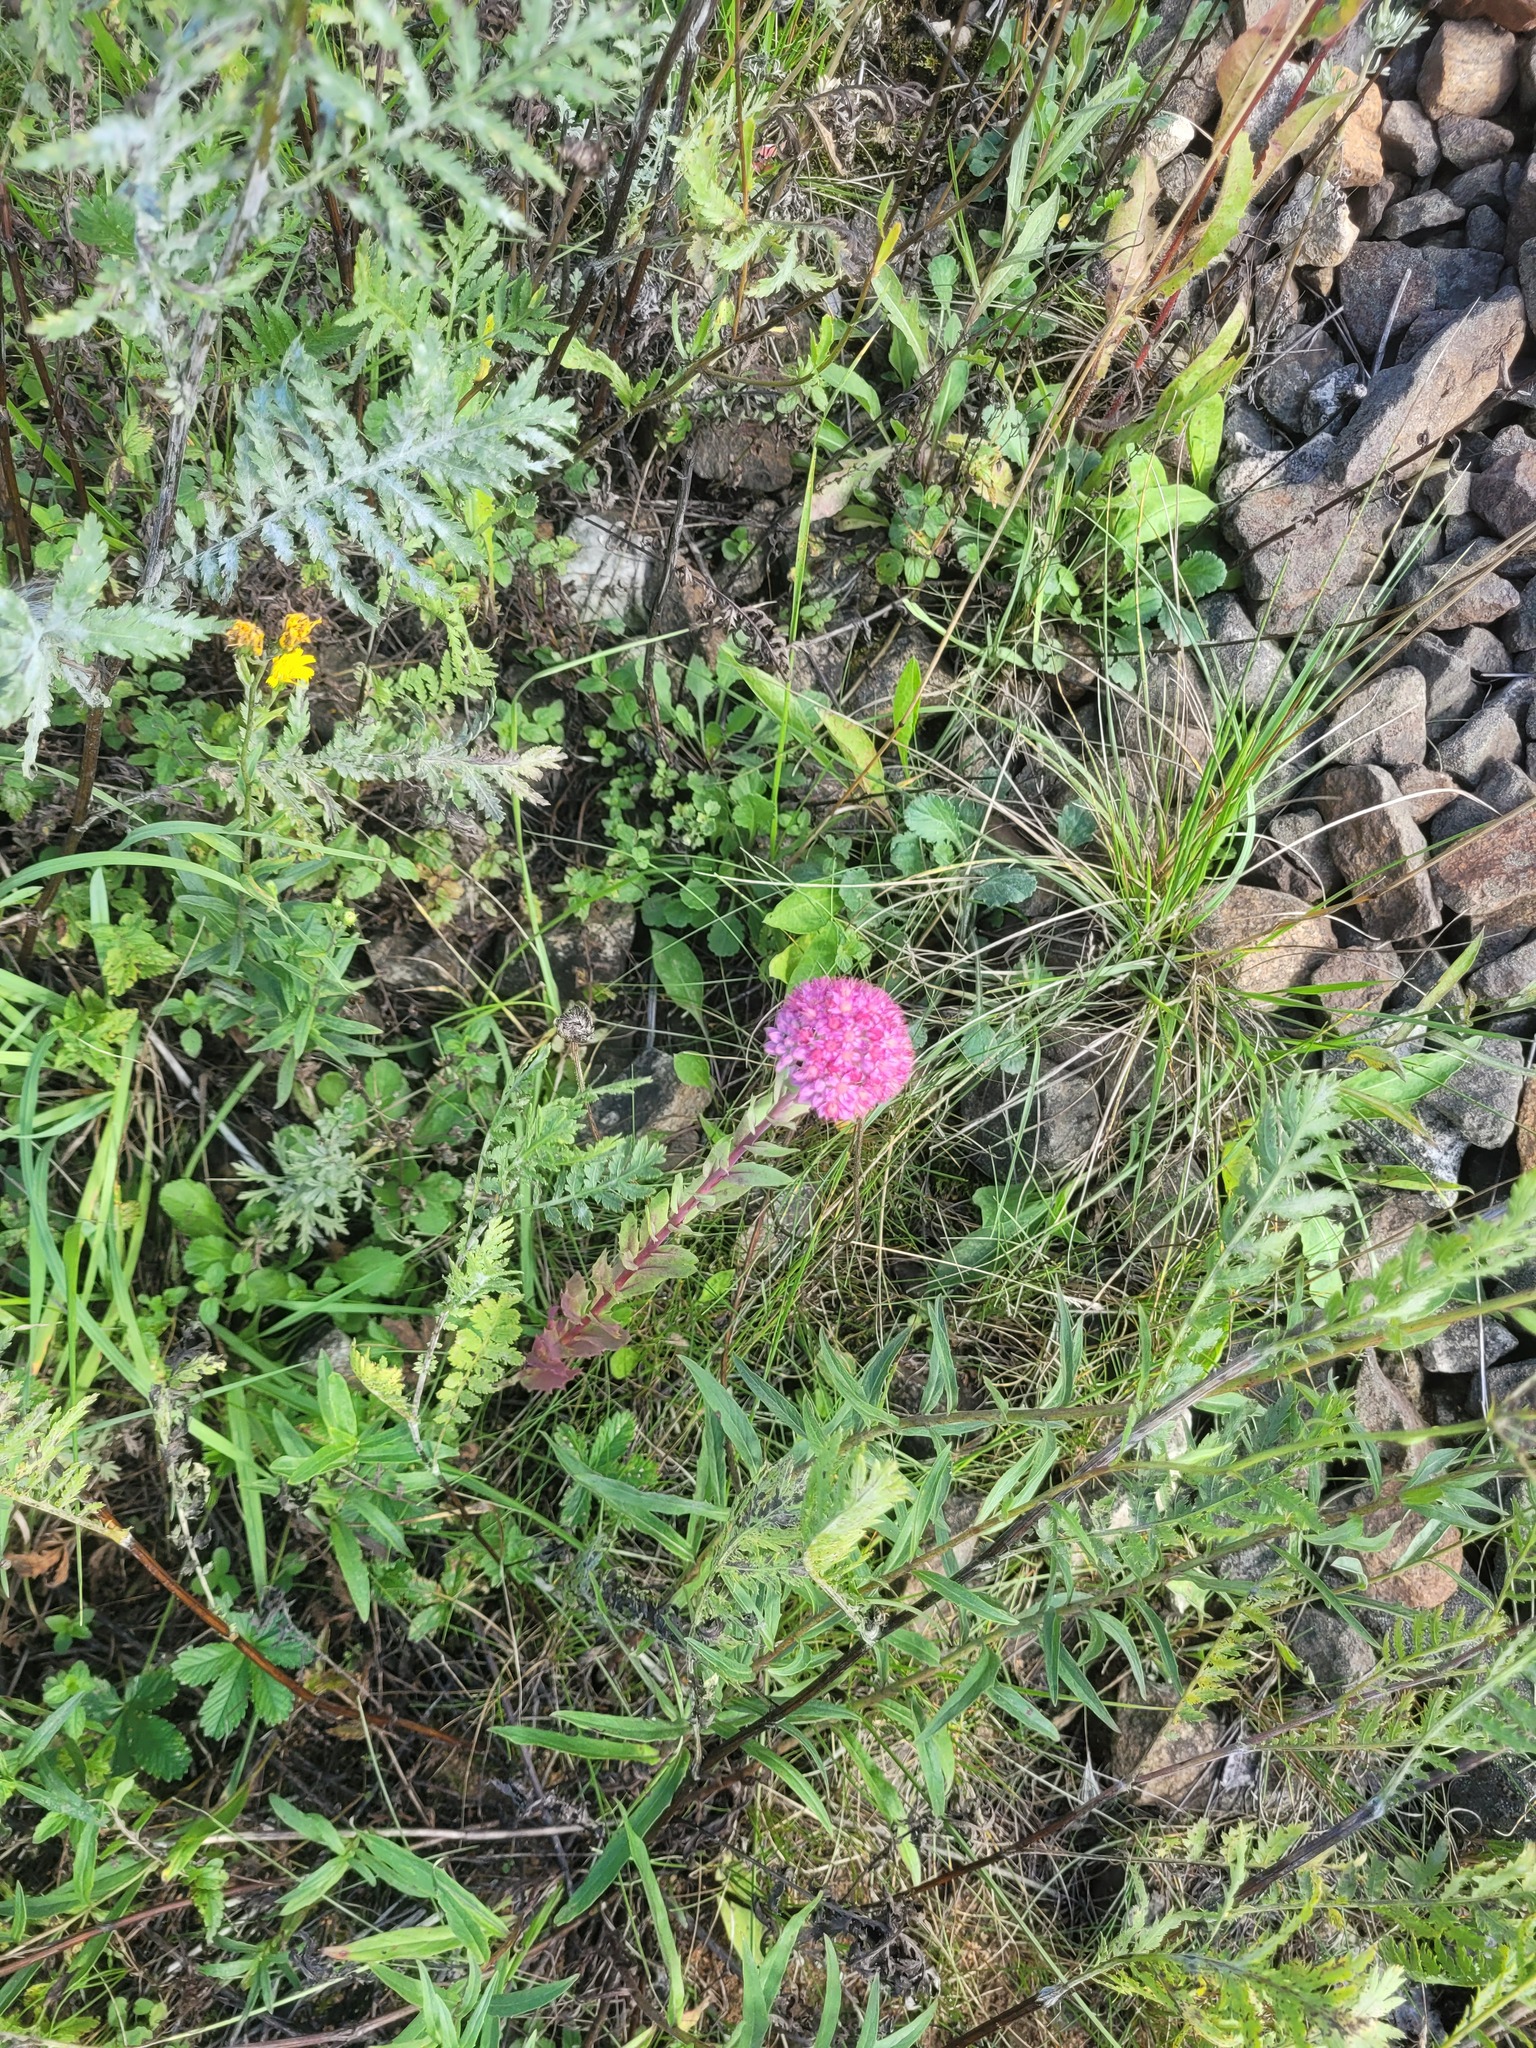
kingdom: Plantae
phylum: Tracheophyta
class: Magnoliopsida
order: Saxifragales
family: Crassulaceae
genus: Hylotelephium
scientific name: Hylotelephium telephium
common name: Live-forever
